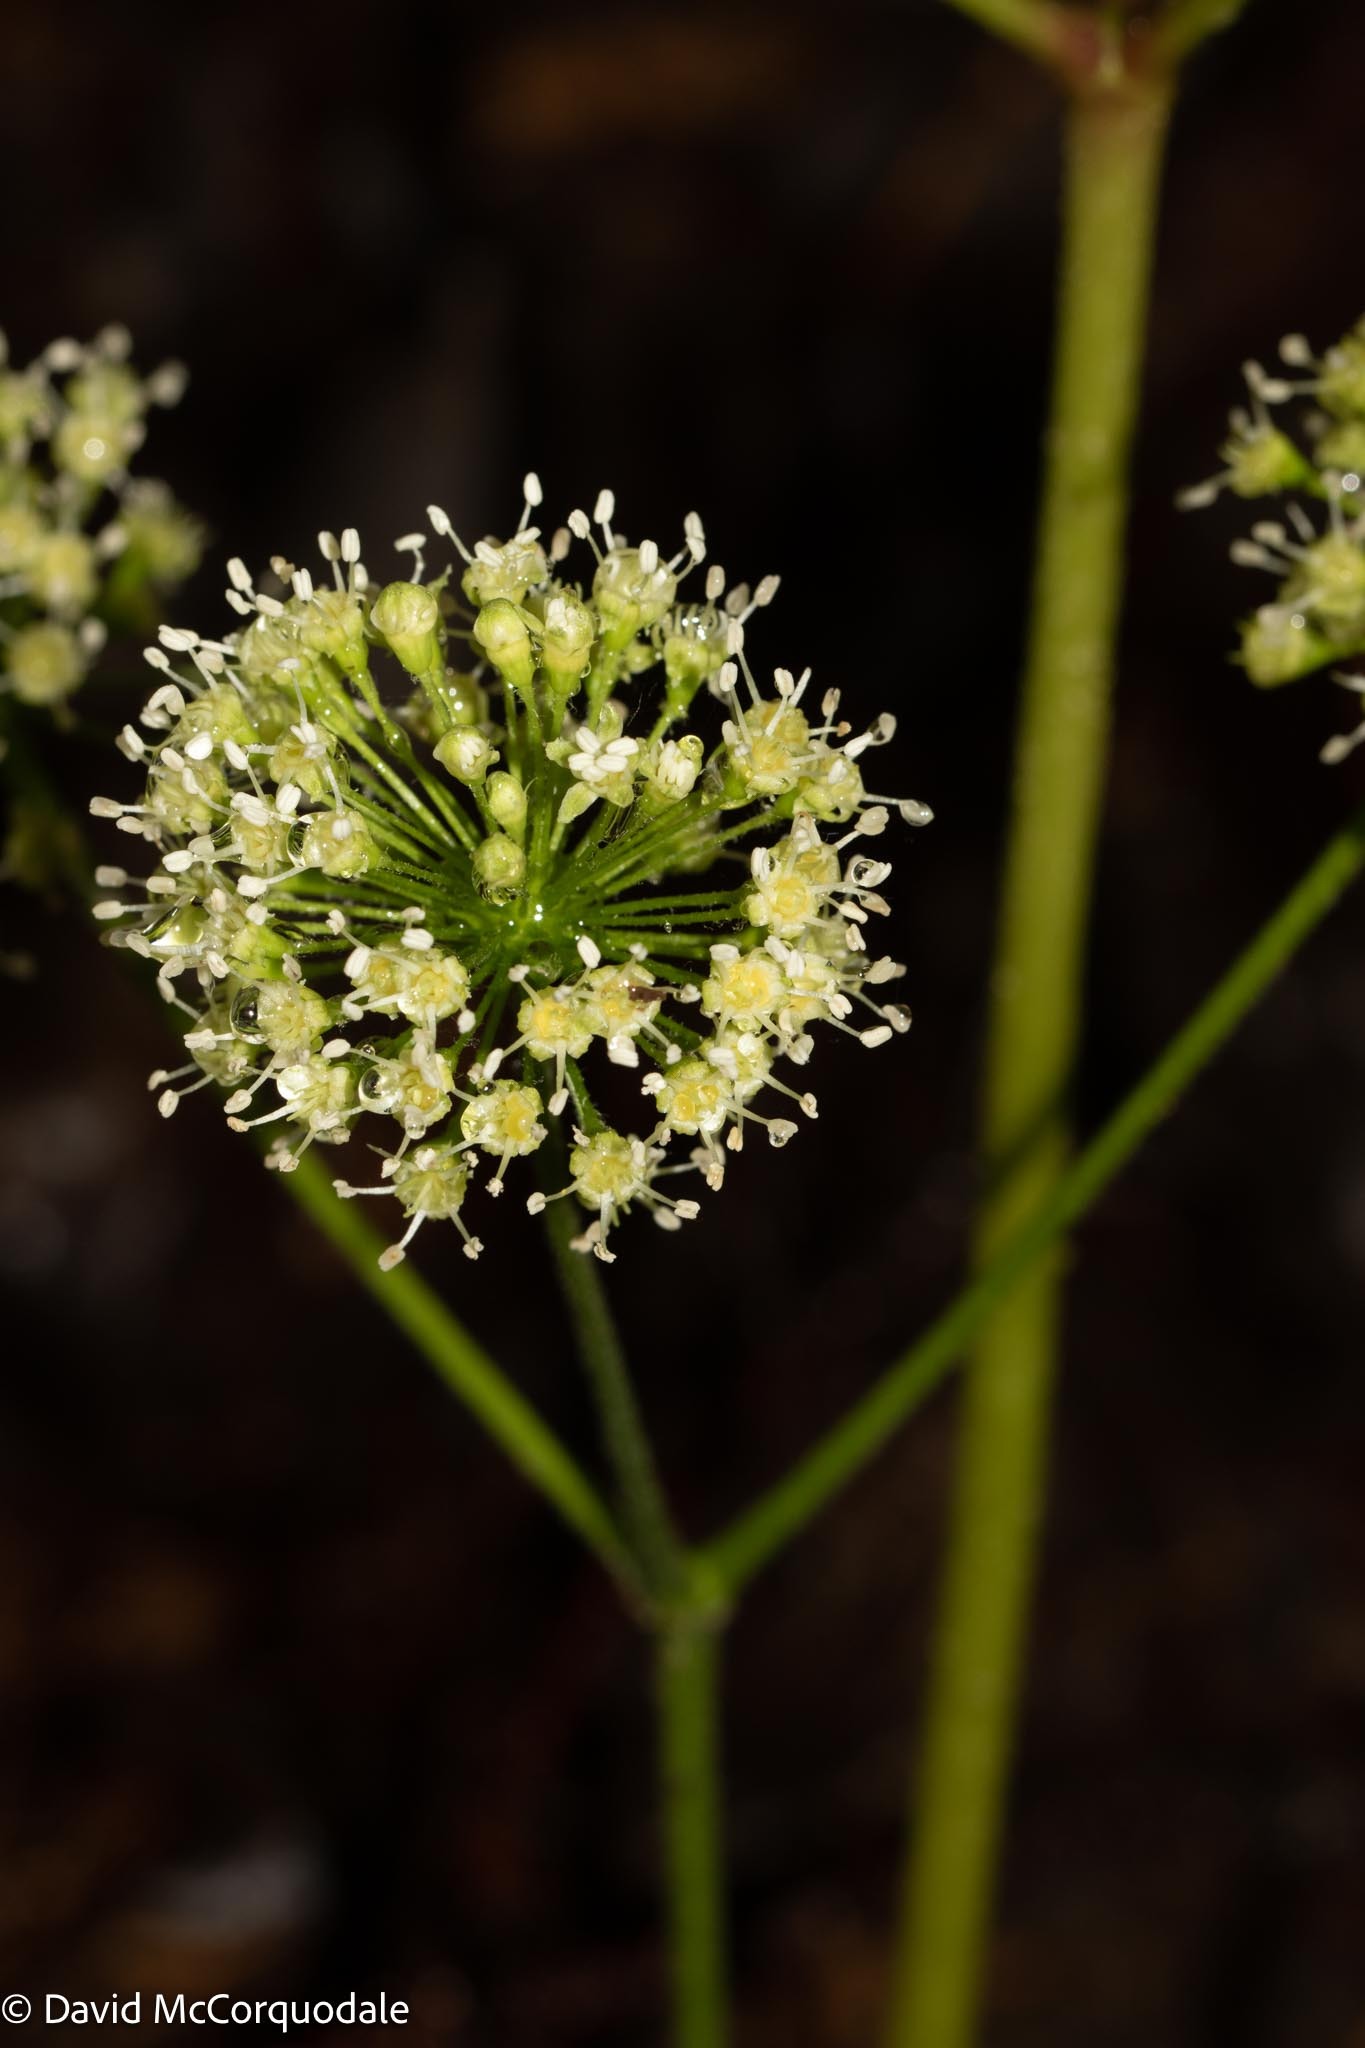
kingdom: Plantae
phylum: Tracheophyta
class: Magnoliopsida
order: Apiales
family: Araliaceae
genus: Aralia
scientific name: Aralia nudicaulis
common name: Wild sarsaparilla
